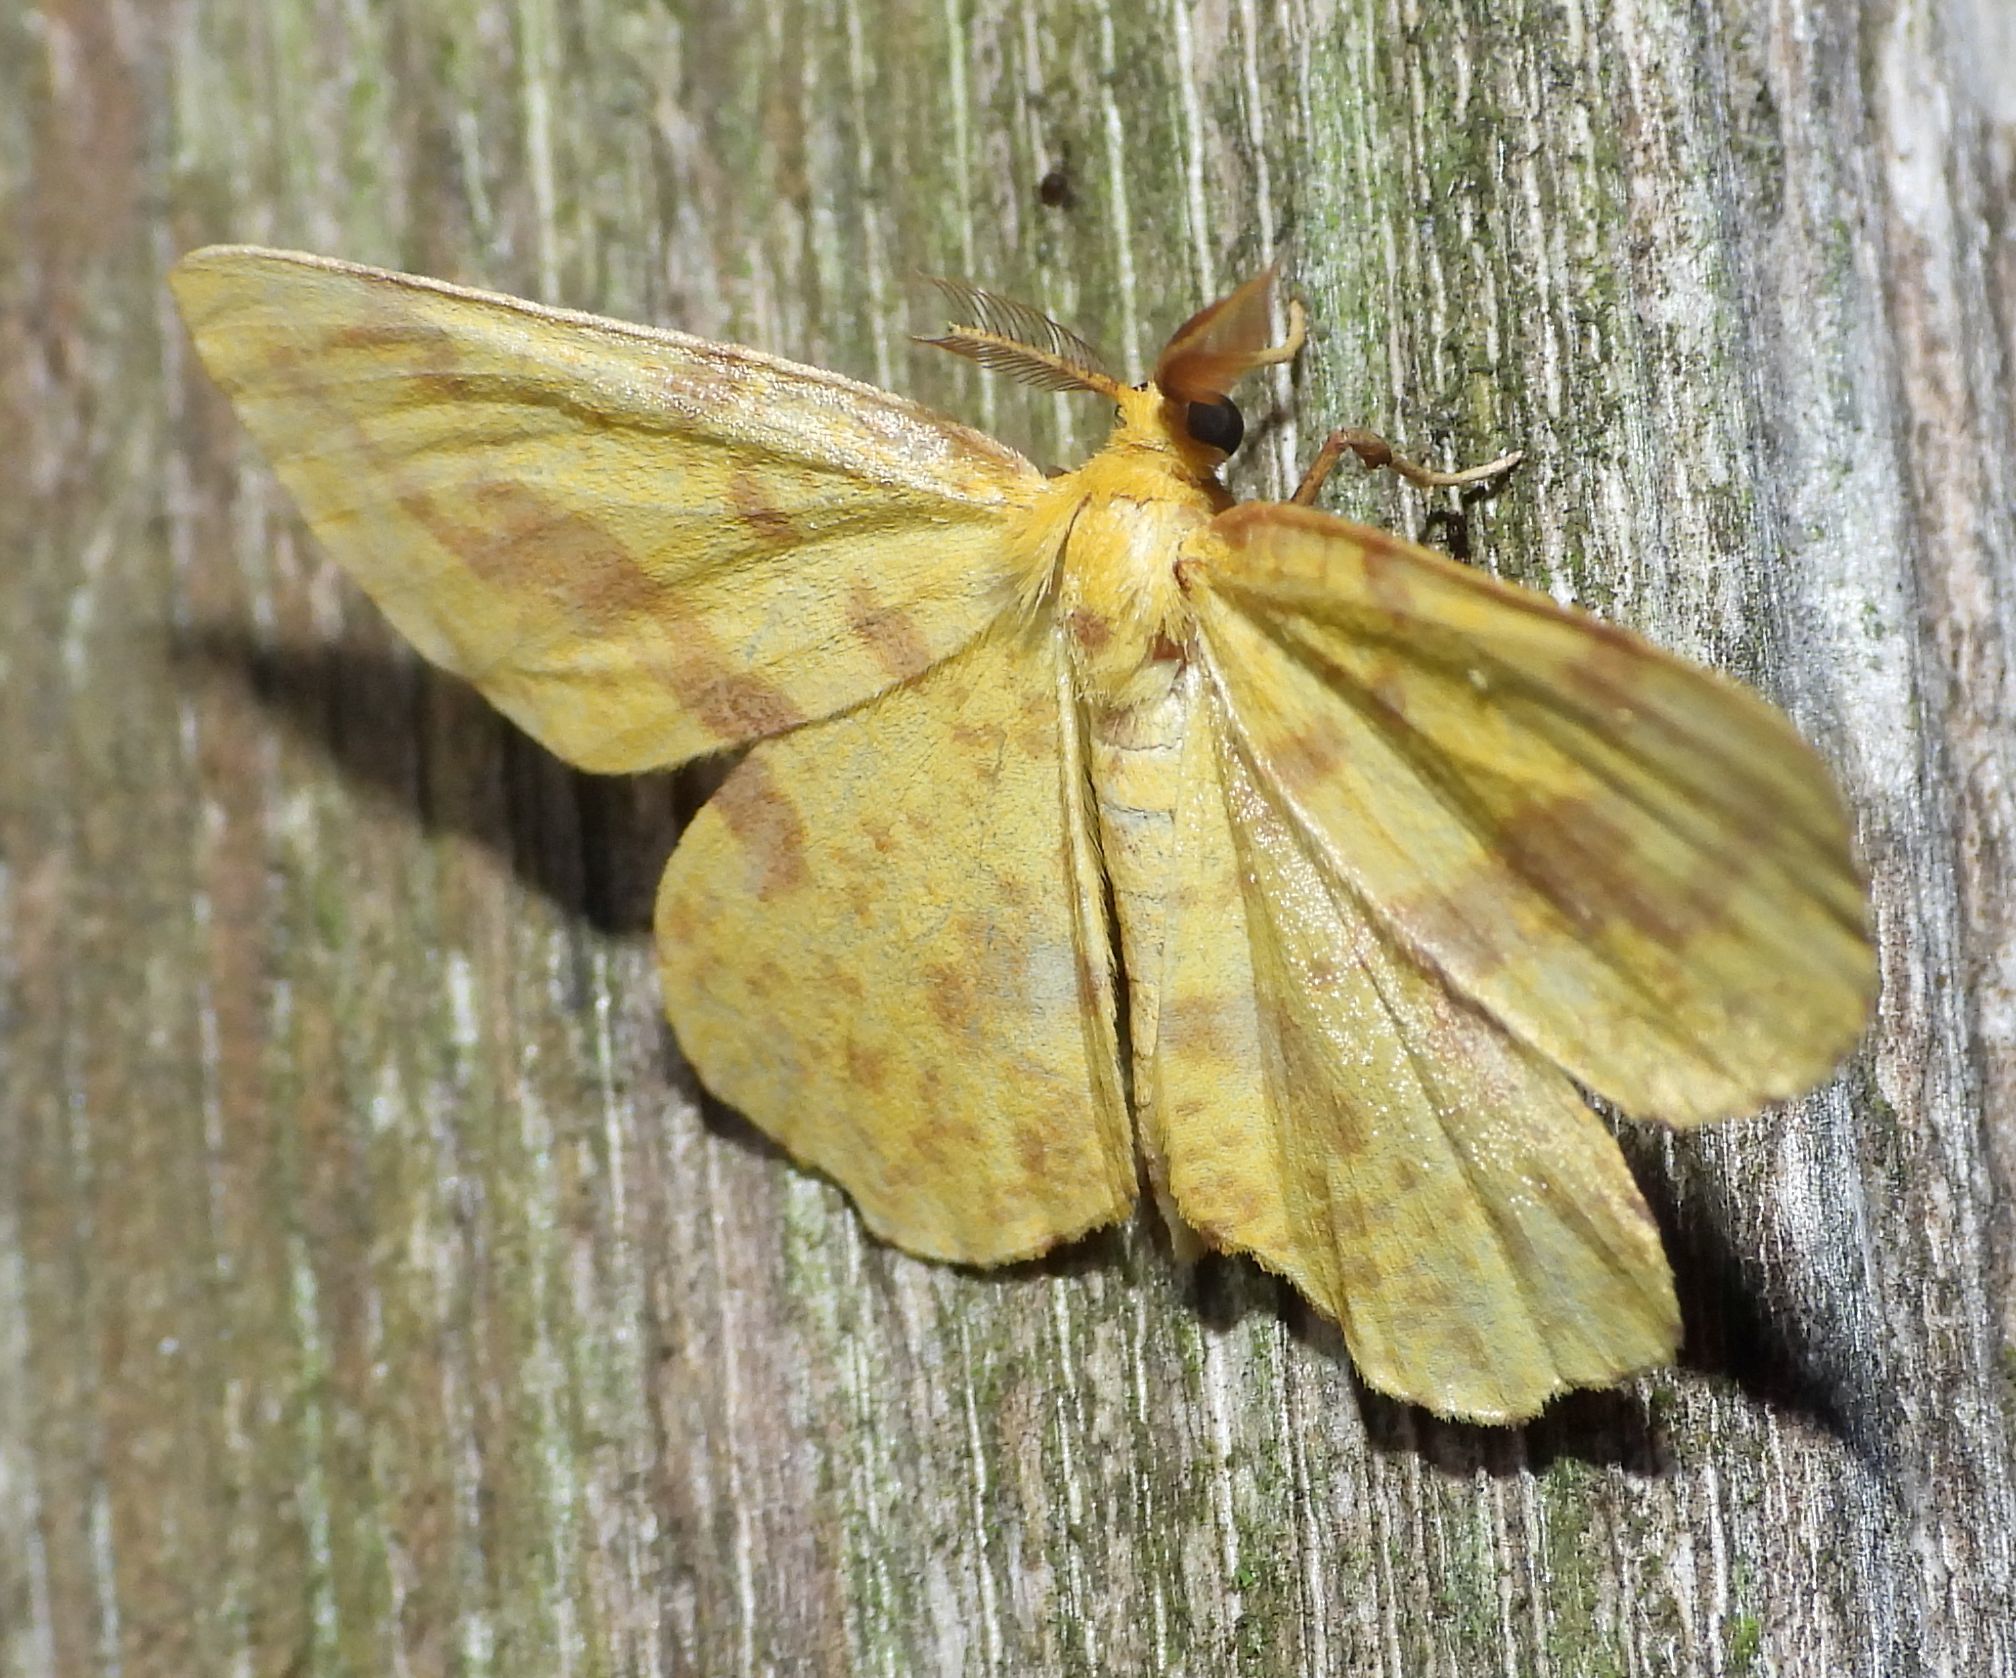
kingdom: Animalia
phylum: Arthropoda
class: Insecta
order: Lepidoptera
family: Geometridae
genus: Xanthotype
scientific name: Xanthotype
